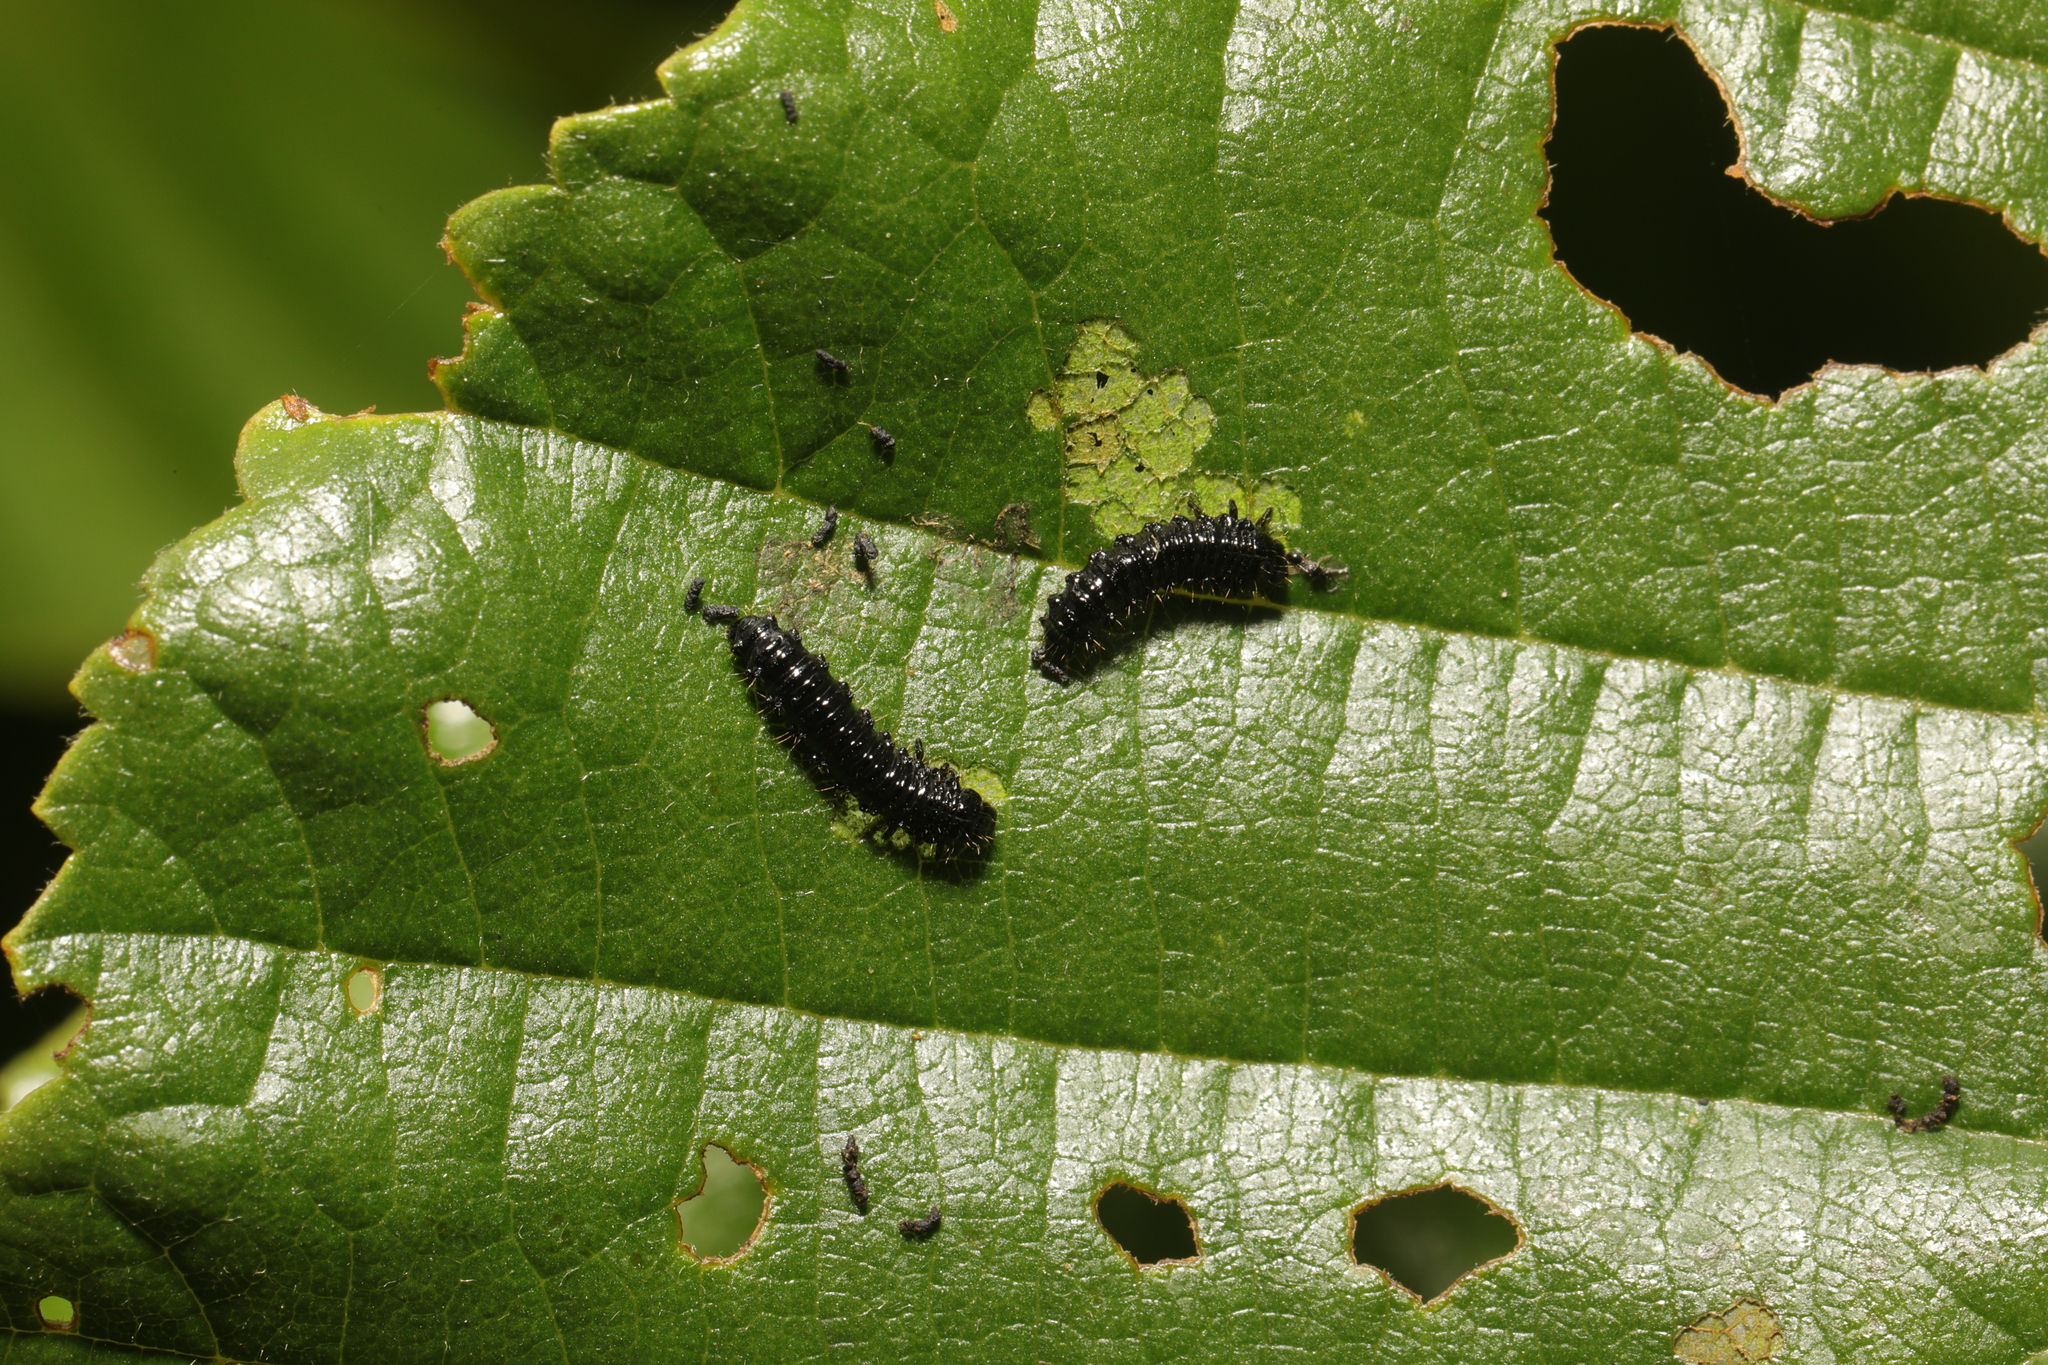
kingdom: Animalia
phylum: Arthropoda
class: Insecta
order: Coleoptera
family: Chrysomelidae
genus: Agelastica
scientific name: Agelastica alni
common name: Alder leaf beetle
